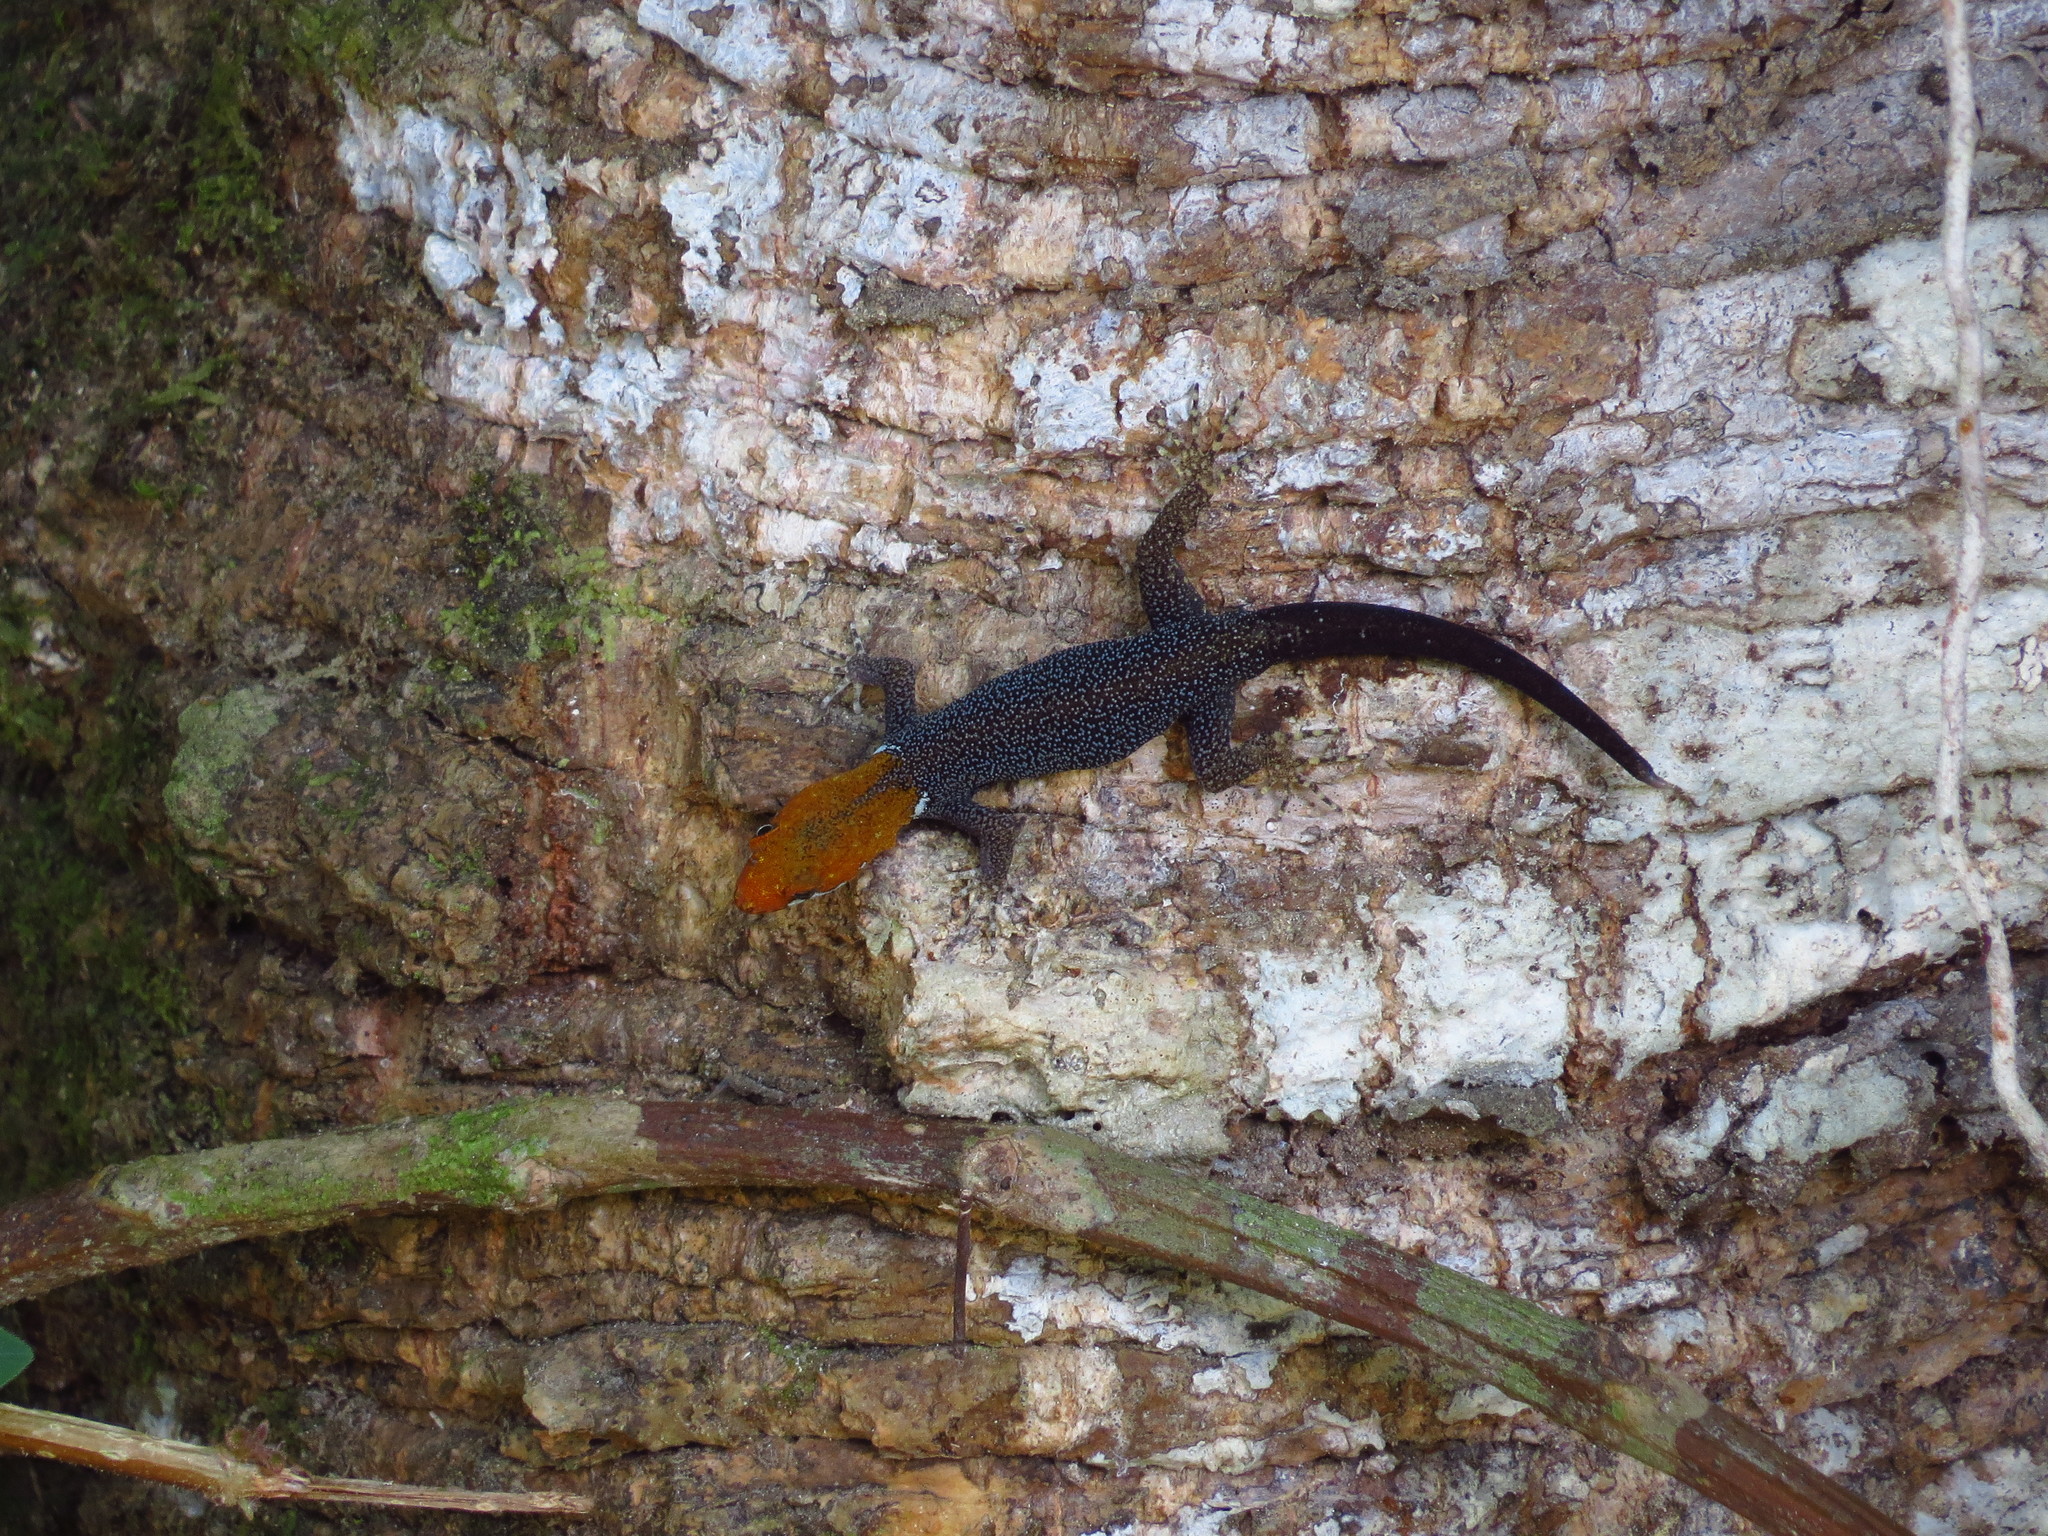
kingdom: Animalia
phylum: Chordata
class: Squamata
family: Sphaerodactylidae
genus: Gonatodes
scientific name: Gonatodes albogularis
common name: Yellow-headed gecko
